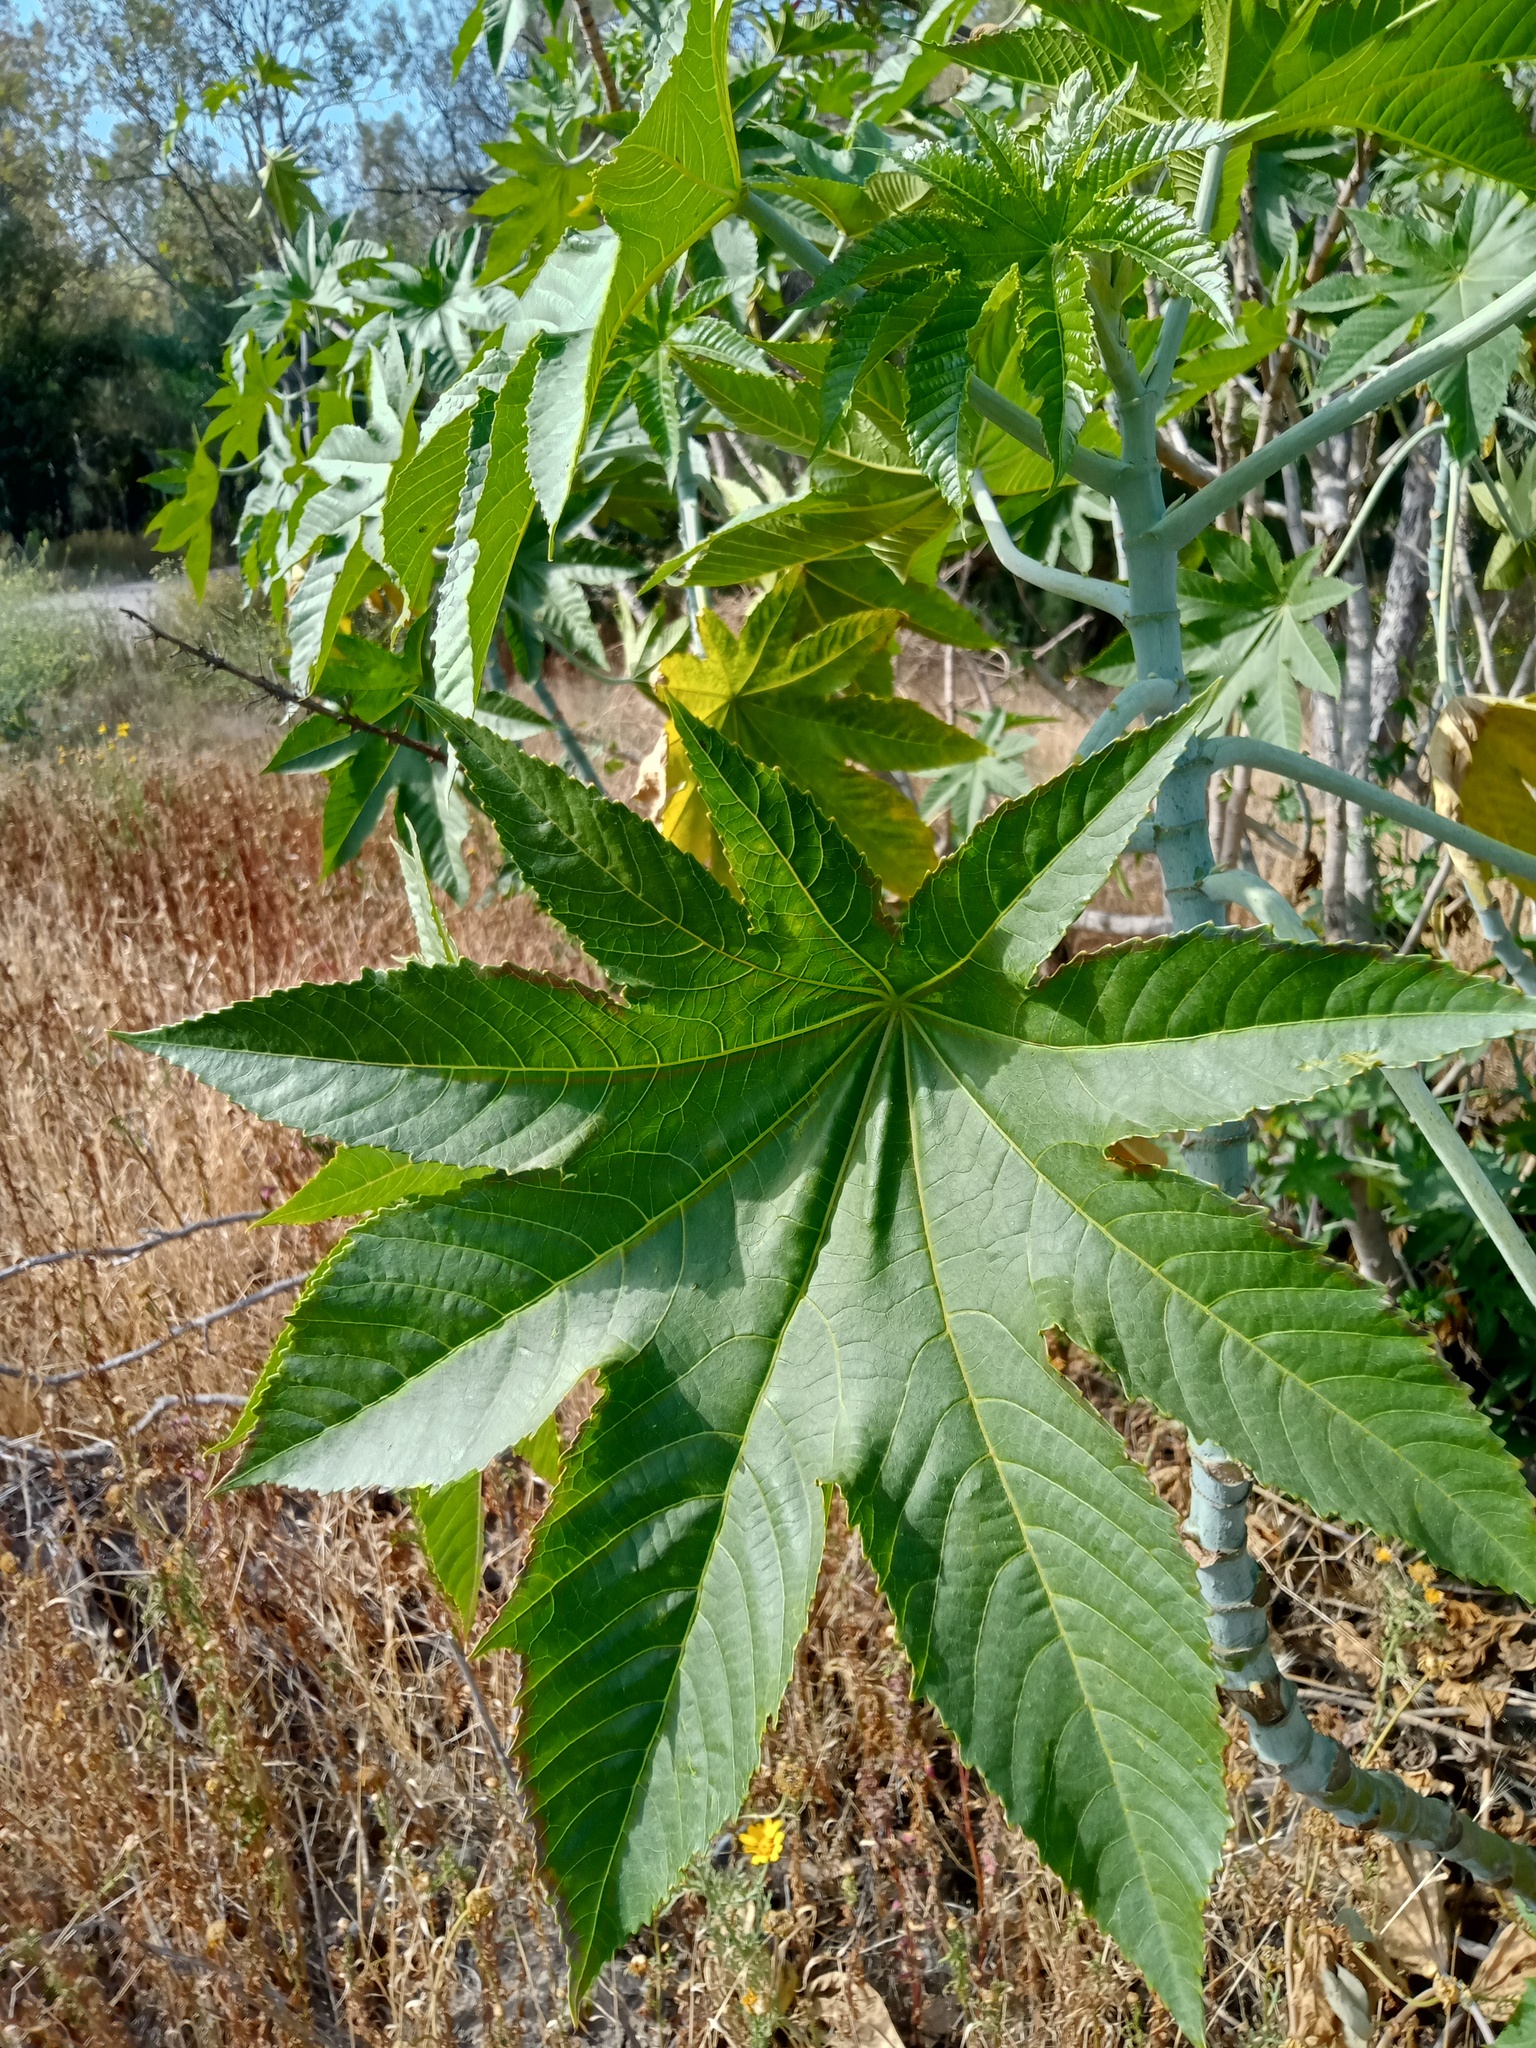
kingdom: Plantae
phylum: Tracheophyta
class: Magnoliopsida
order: Malpighiales
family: Euphorbiaceae
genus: Ricinus
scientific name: Ricinus communis
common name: Castor-oil-plant
